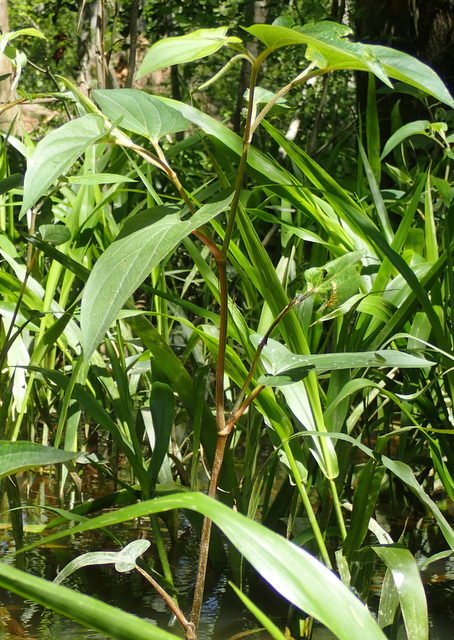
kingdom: Plantae
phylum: Tracheophyta
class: Magnoliopsida
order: Piperales
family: Saururaceae
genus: Saururus
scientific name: Saururus cernuus
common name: Lizard's-tail
